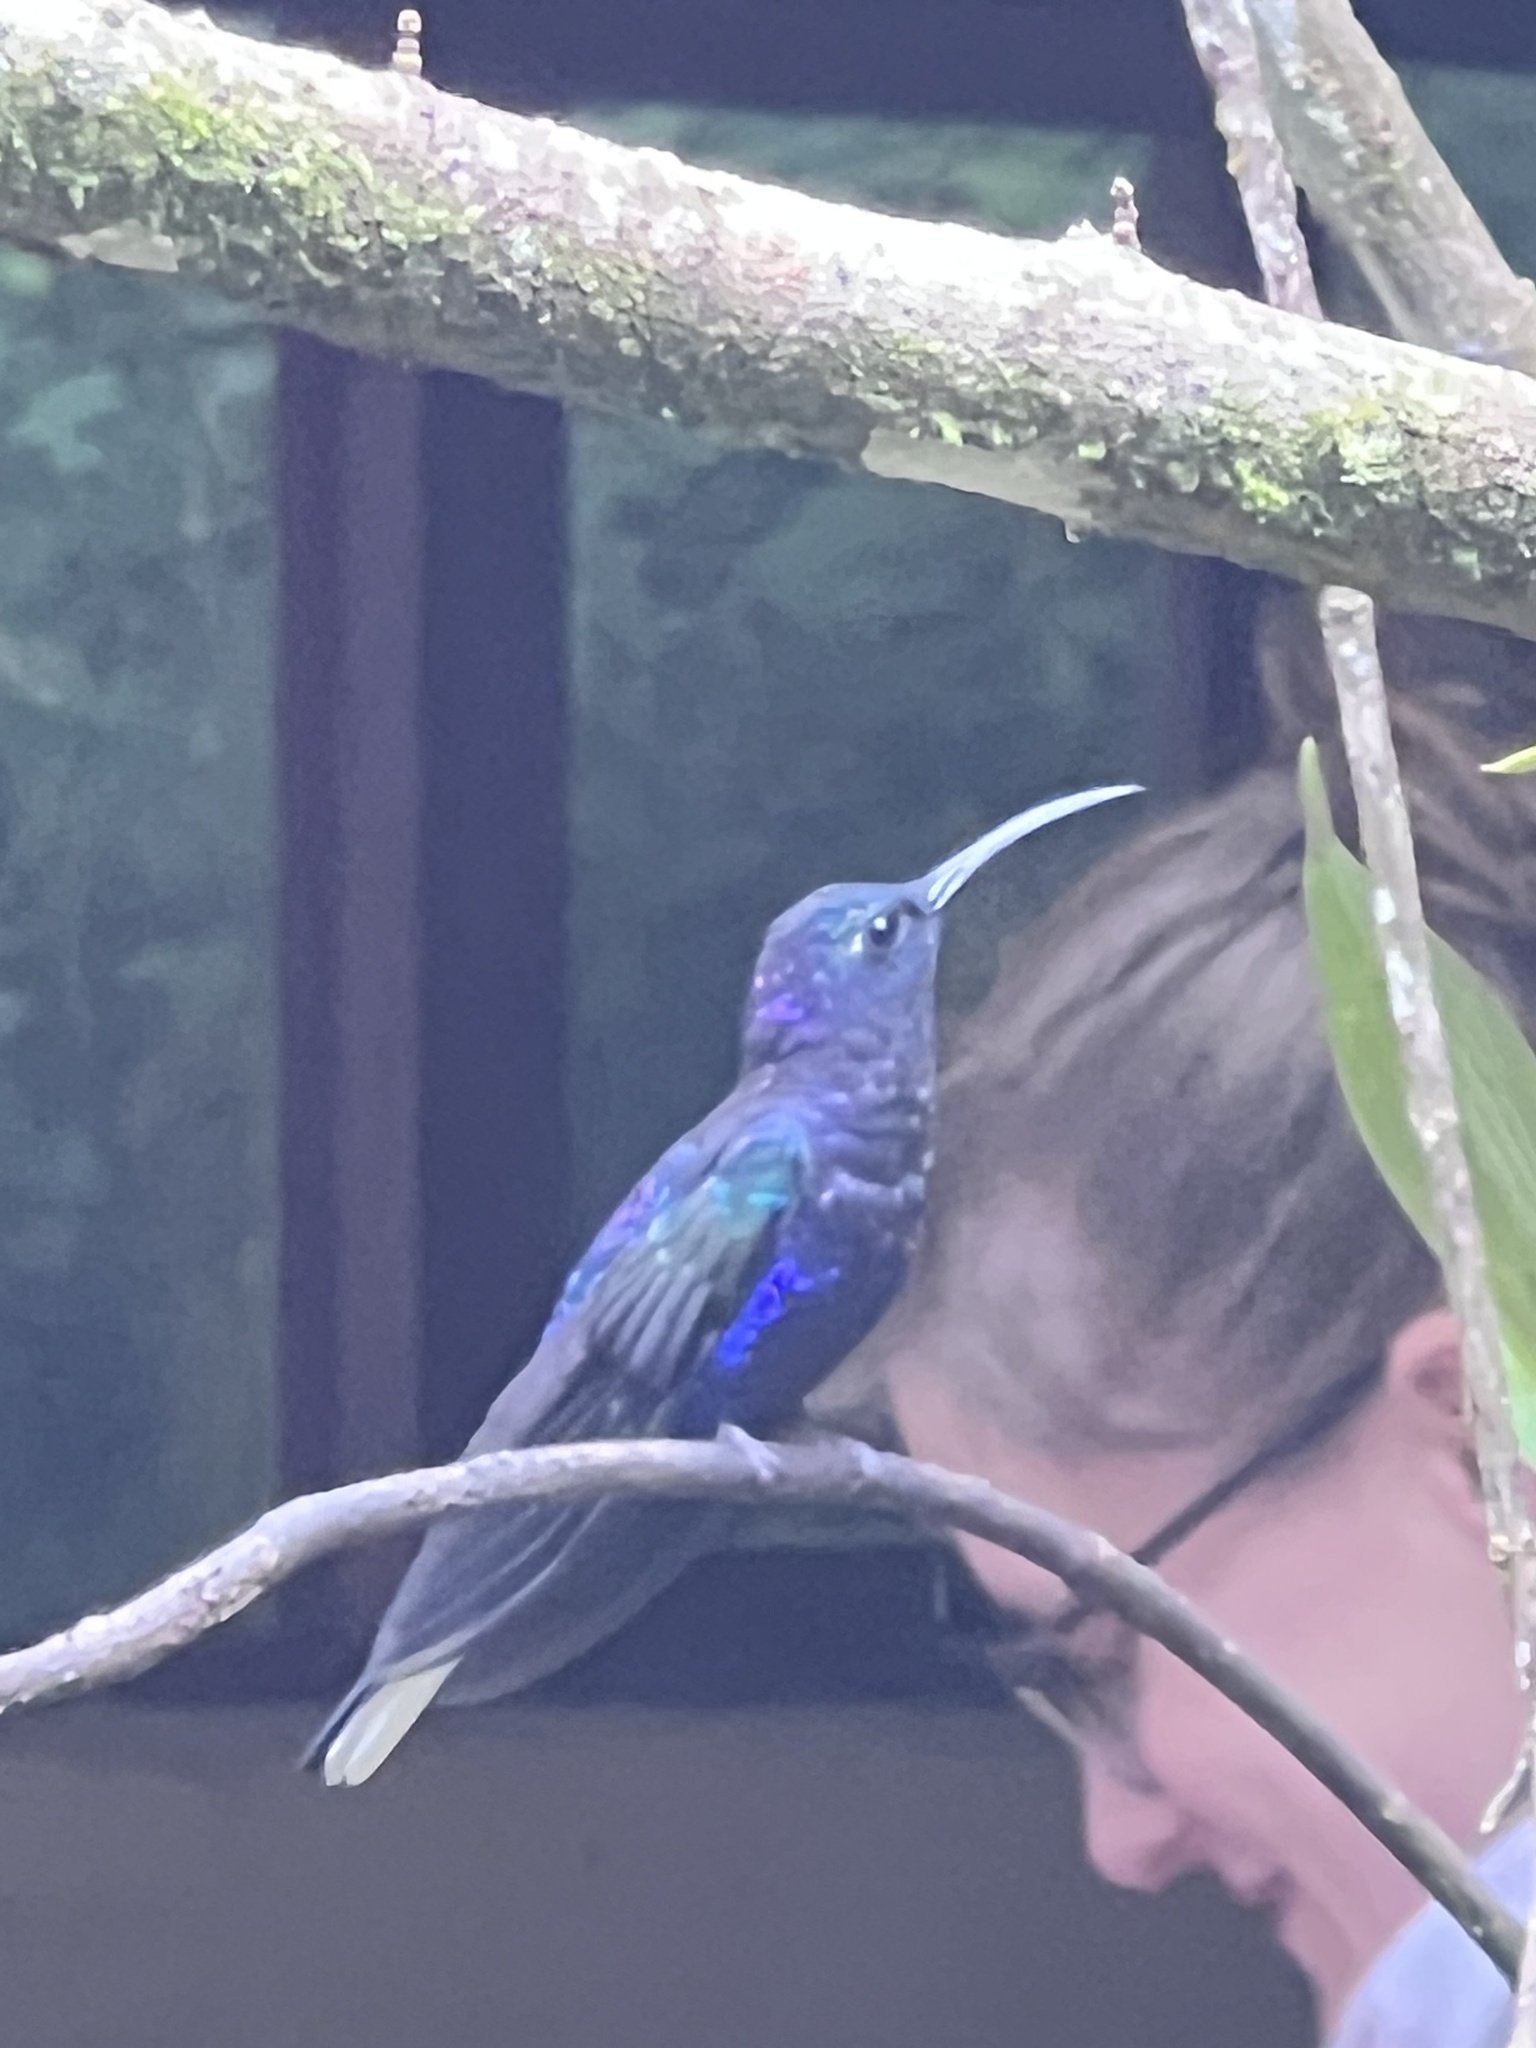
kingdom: Animalia
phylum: Chordata
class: Aves
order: Apodiformes
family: Trochilidae
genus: Campylopterus
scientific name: Campylopterus hemileucurus
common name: Violet sabrewing
